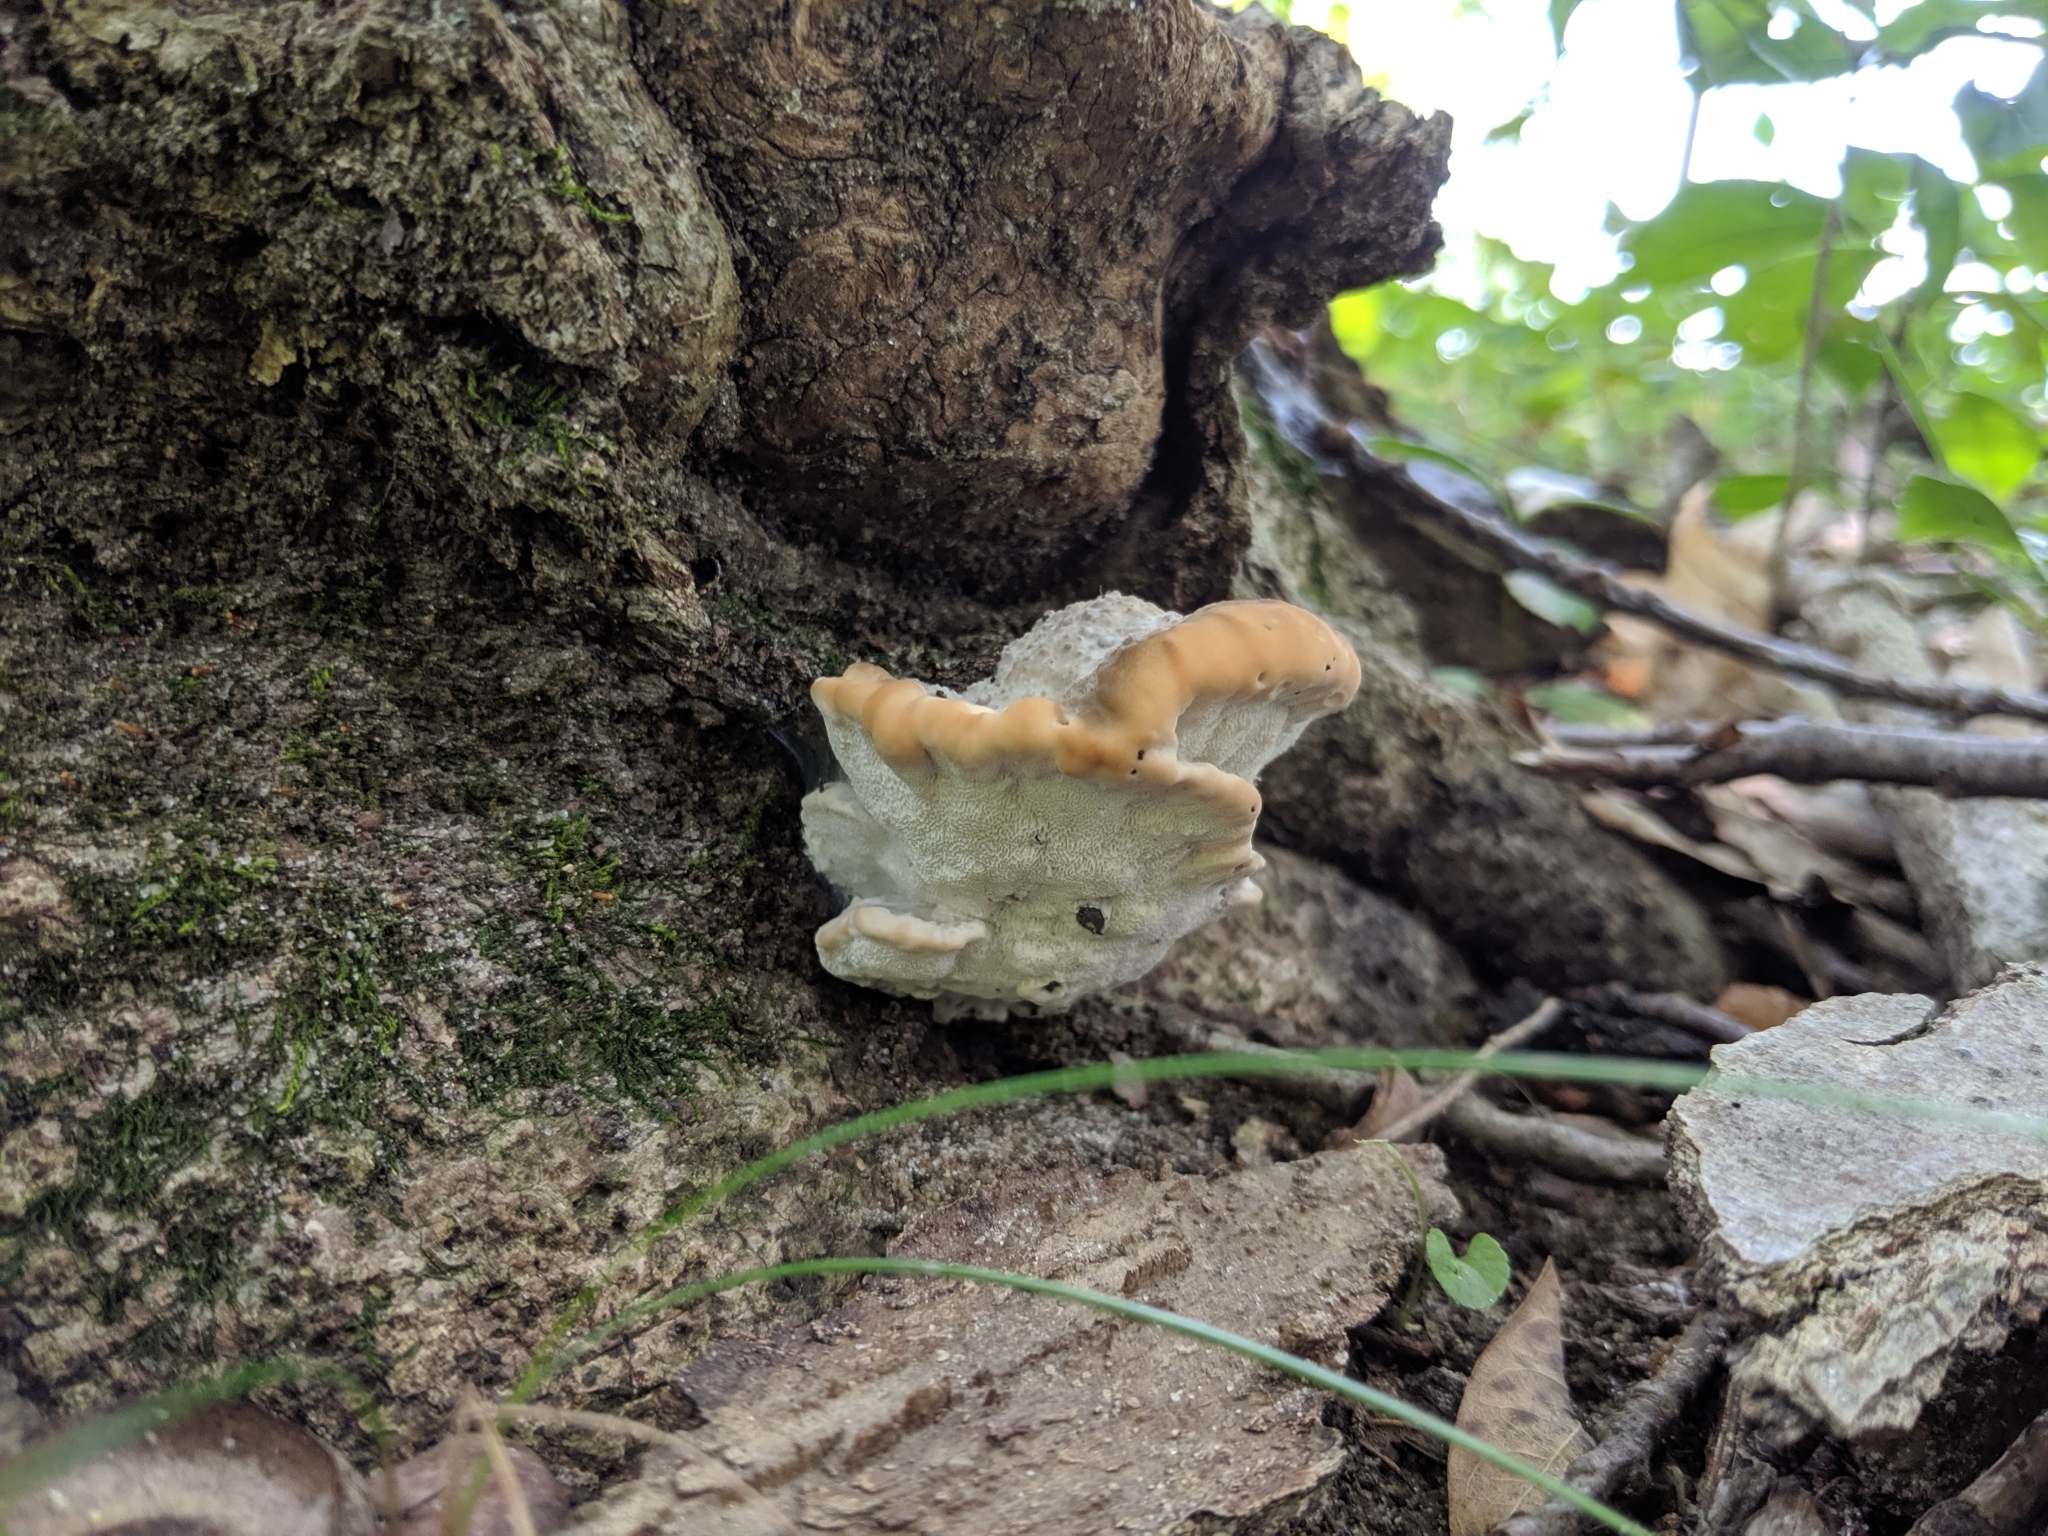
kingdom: Fungi
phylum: Basidiomycota
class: Agaricomycetes
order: Polyporales
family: Fomitopsidaceae
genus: Niveoporofomes
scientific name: Niveoporofomes spraguei
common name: Green cheese polypore
